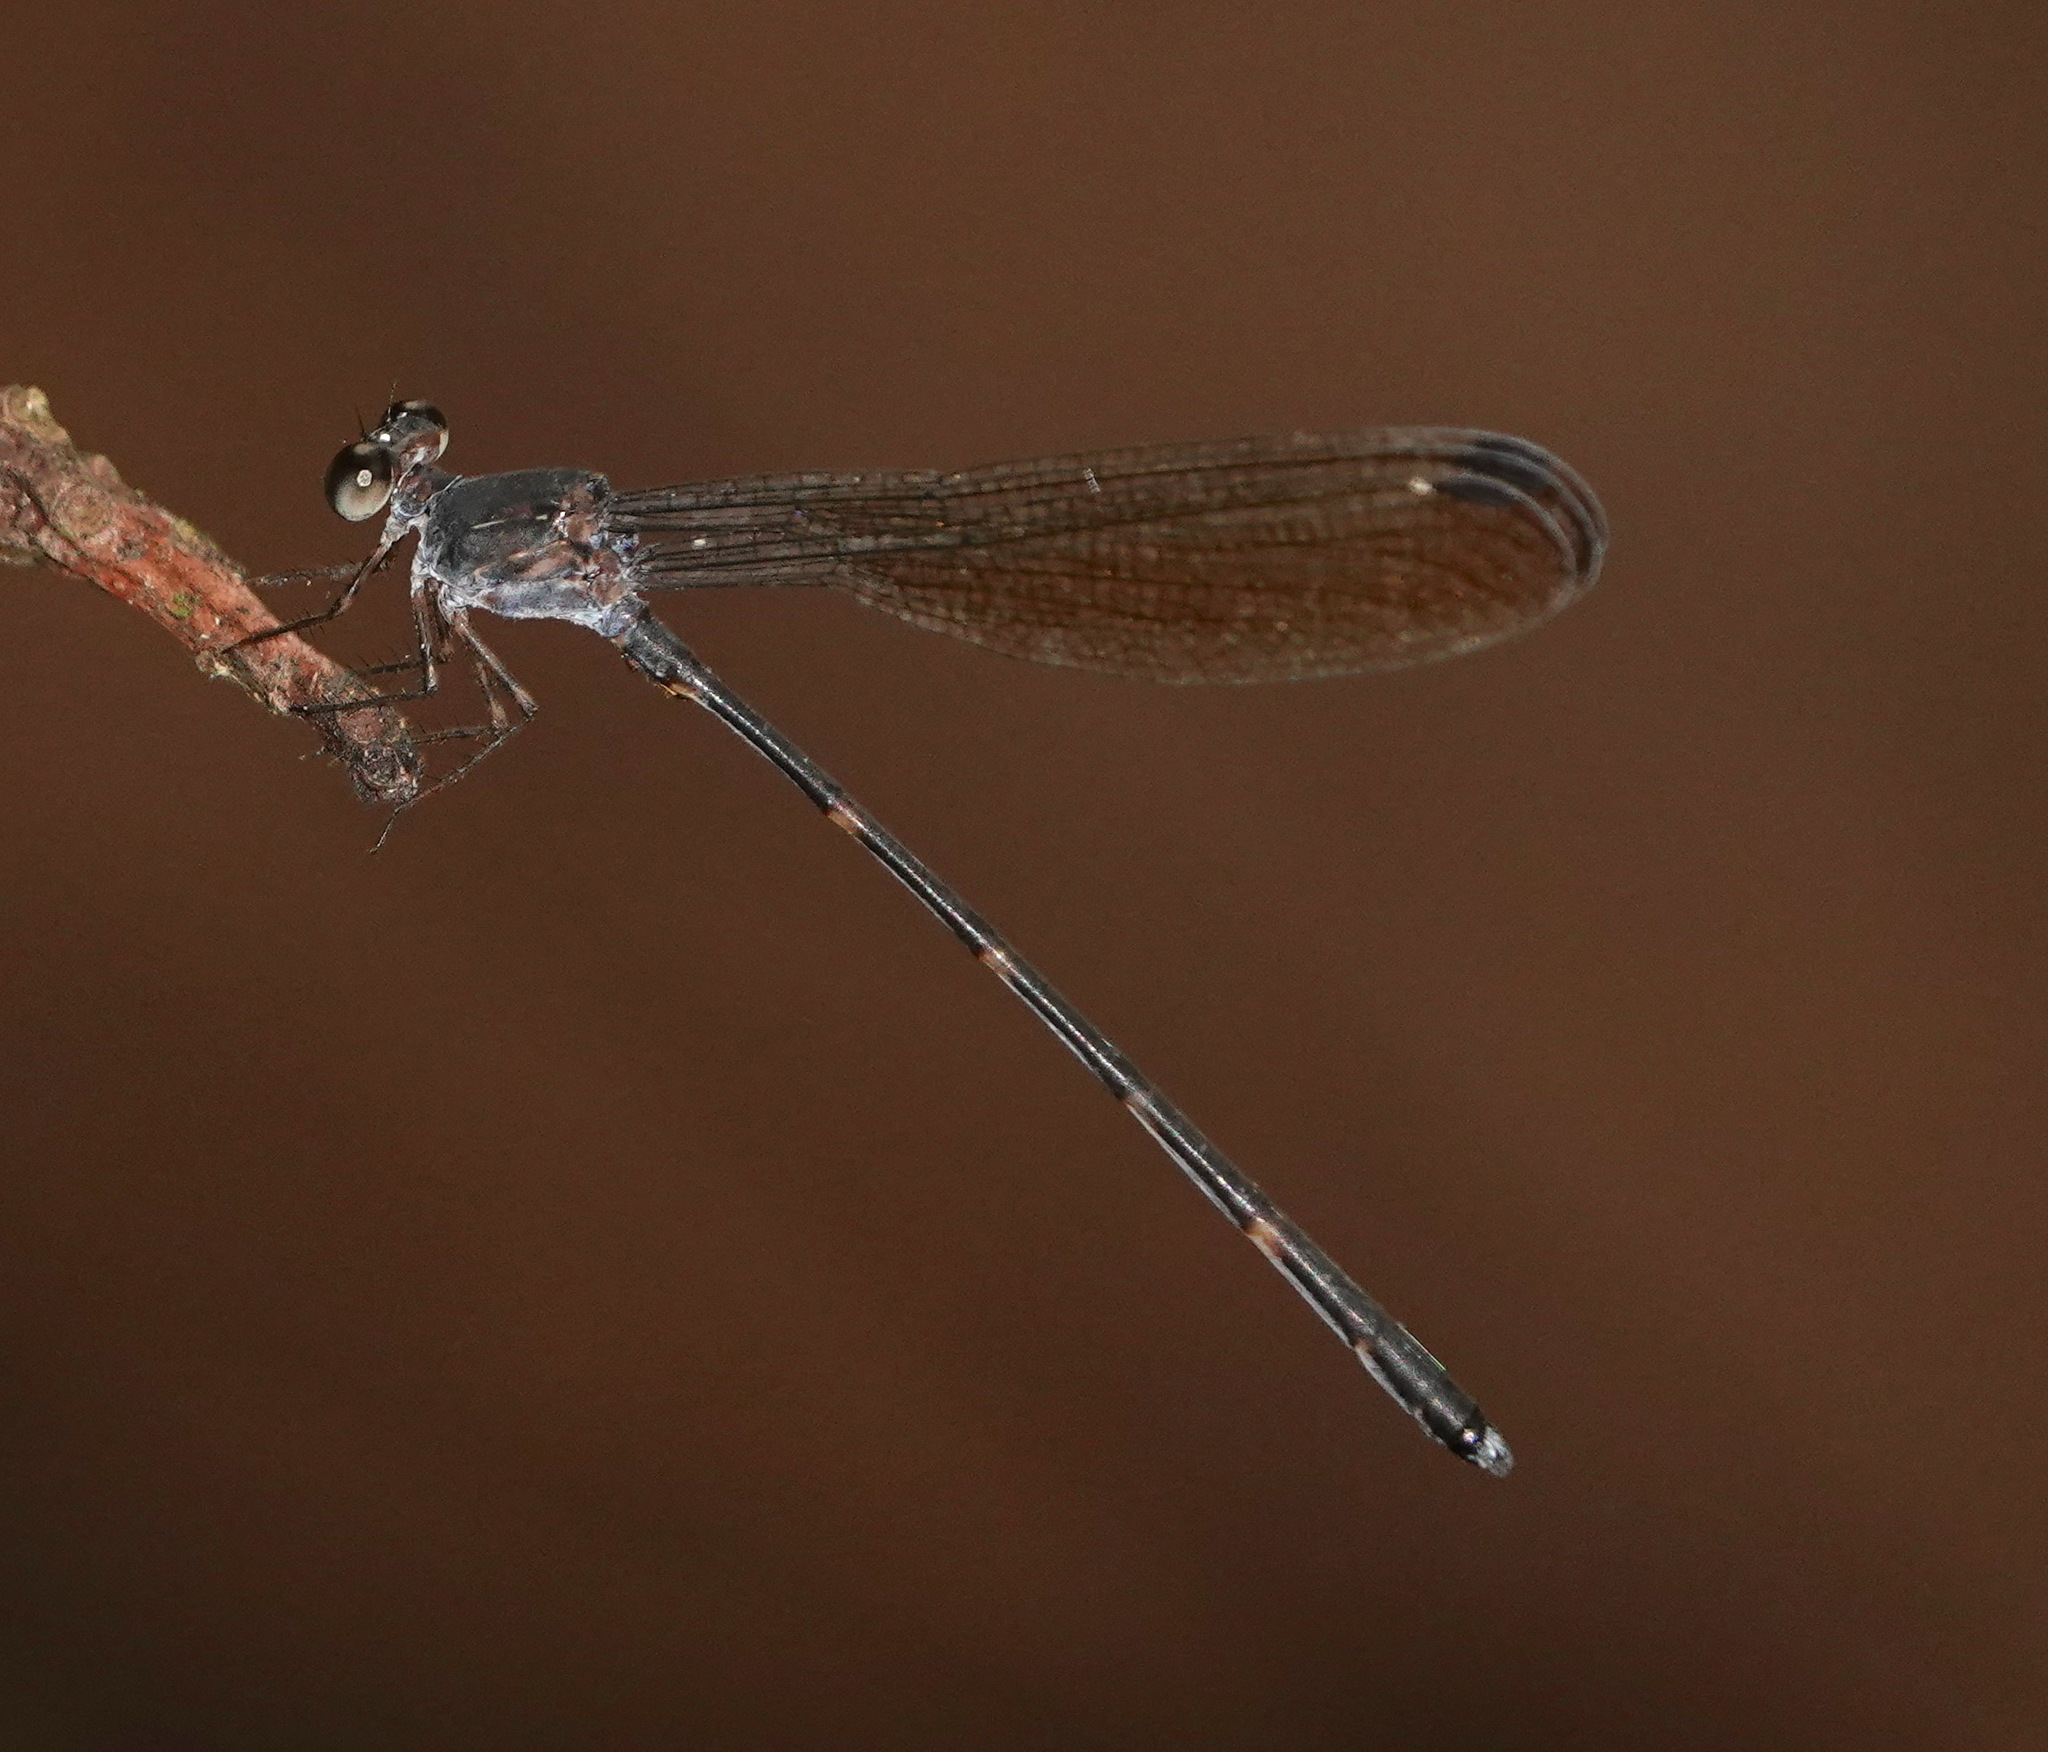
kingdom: Animalia
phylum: Arthropoda
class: Insecta
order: Odonata
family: Devadattidae
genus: Devadatta
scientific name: Devadatta argyoides
